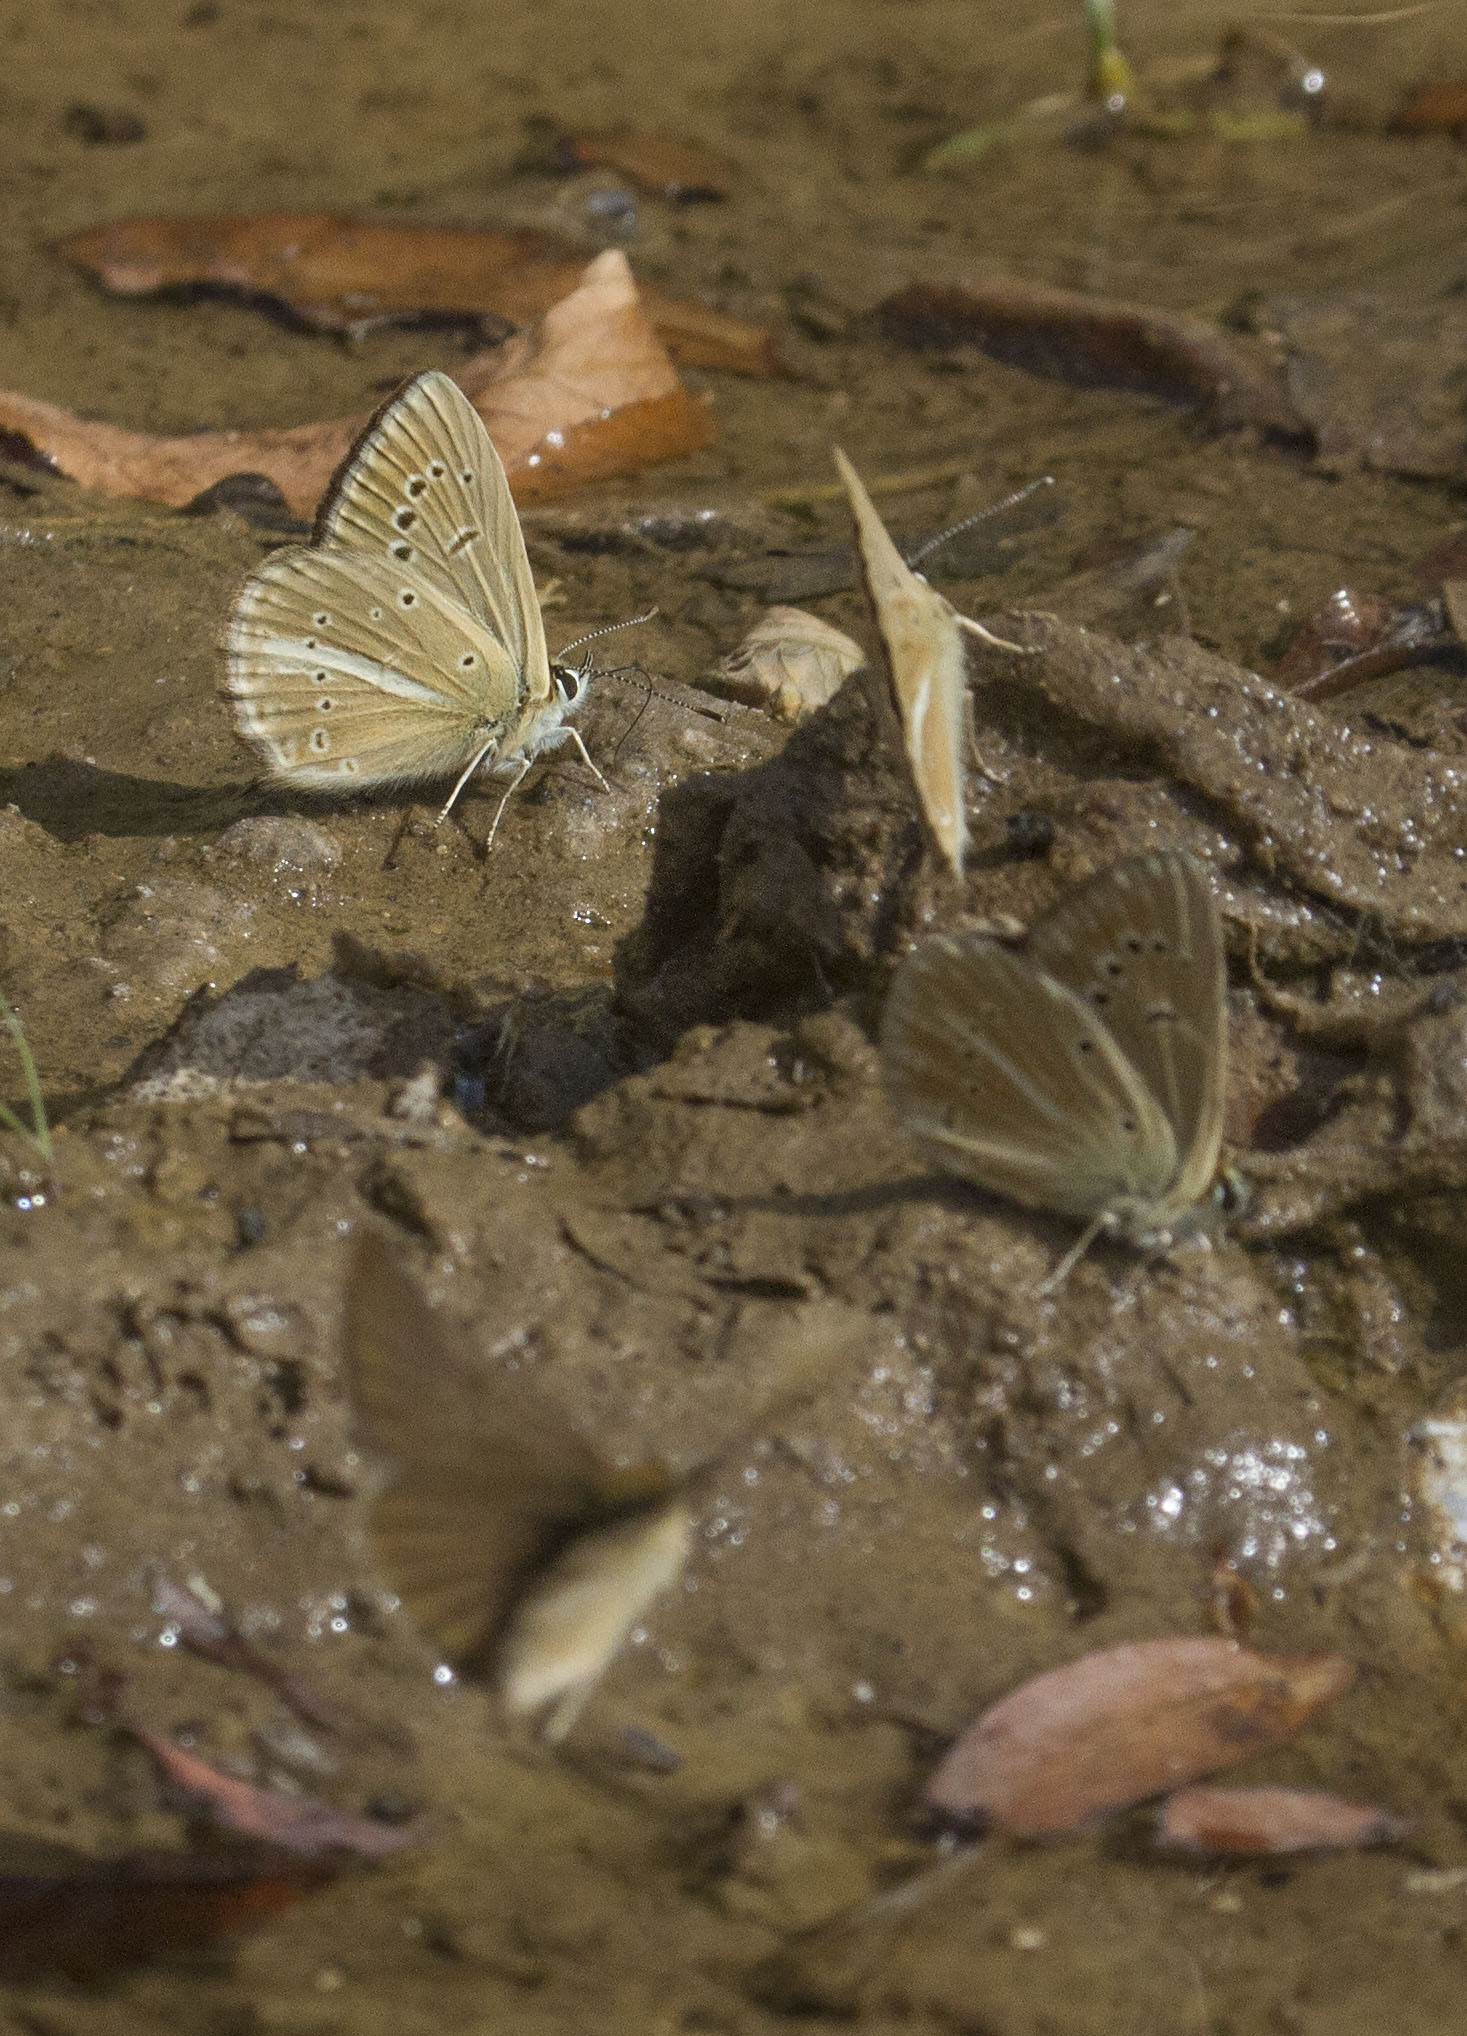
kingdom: Animalia
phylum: Arthropoda
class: Insecta
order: Lepidoptera
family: Lycaenidae
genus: Polyommatus
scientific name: Polyommatus demavendi
